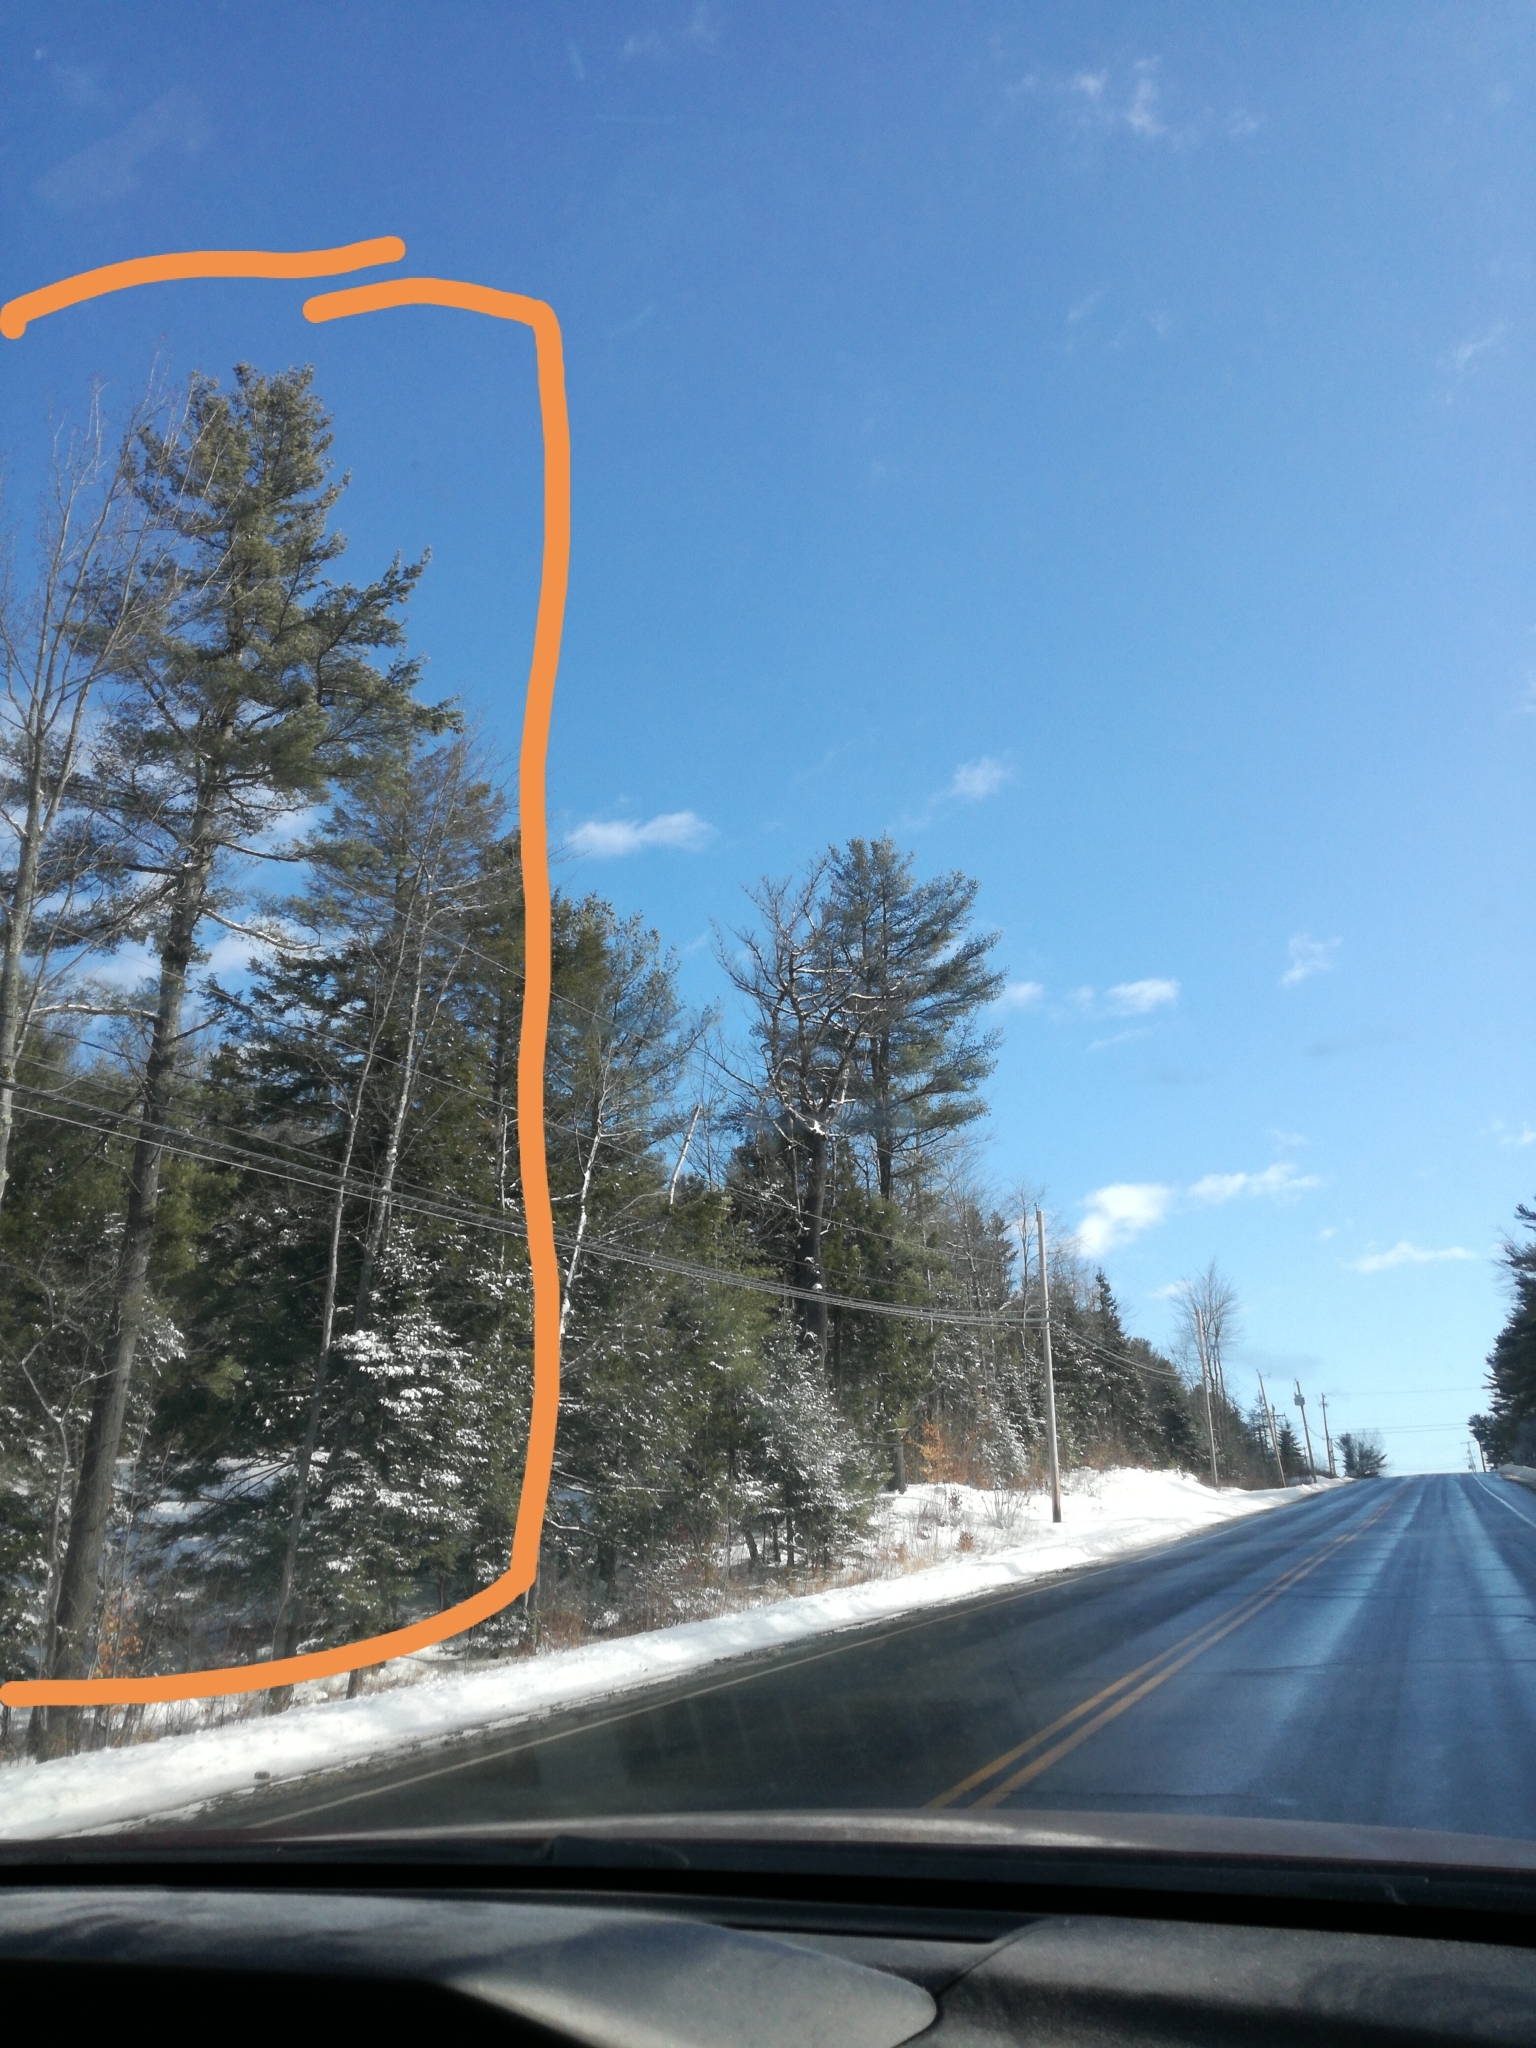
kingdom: Plantae
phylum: Tracheophyta
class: Pinopsida
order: Pinales
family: Pinaceae
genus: Pinus
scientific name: Pinus strobus
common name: Weymouth pine
